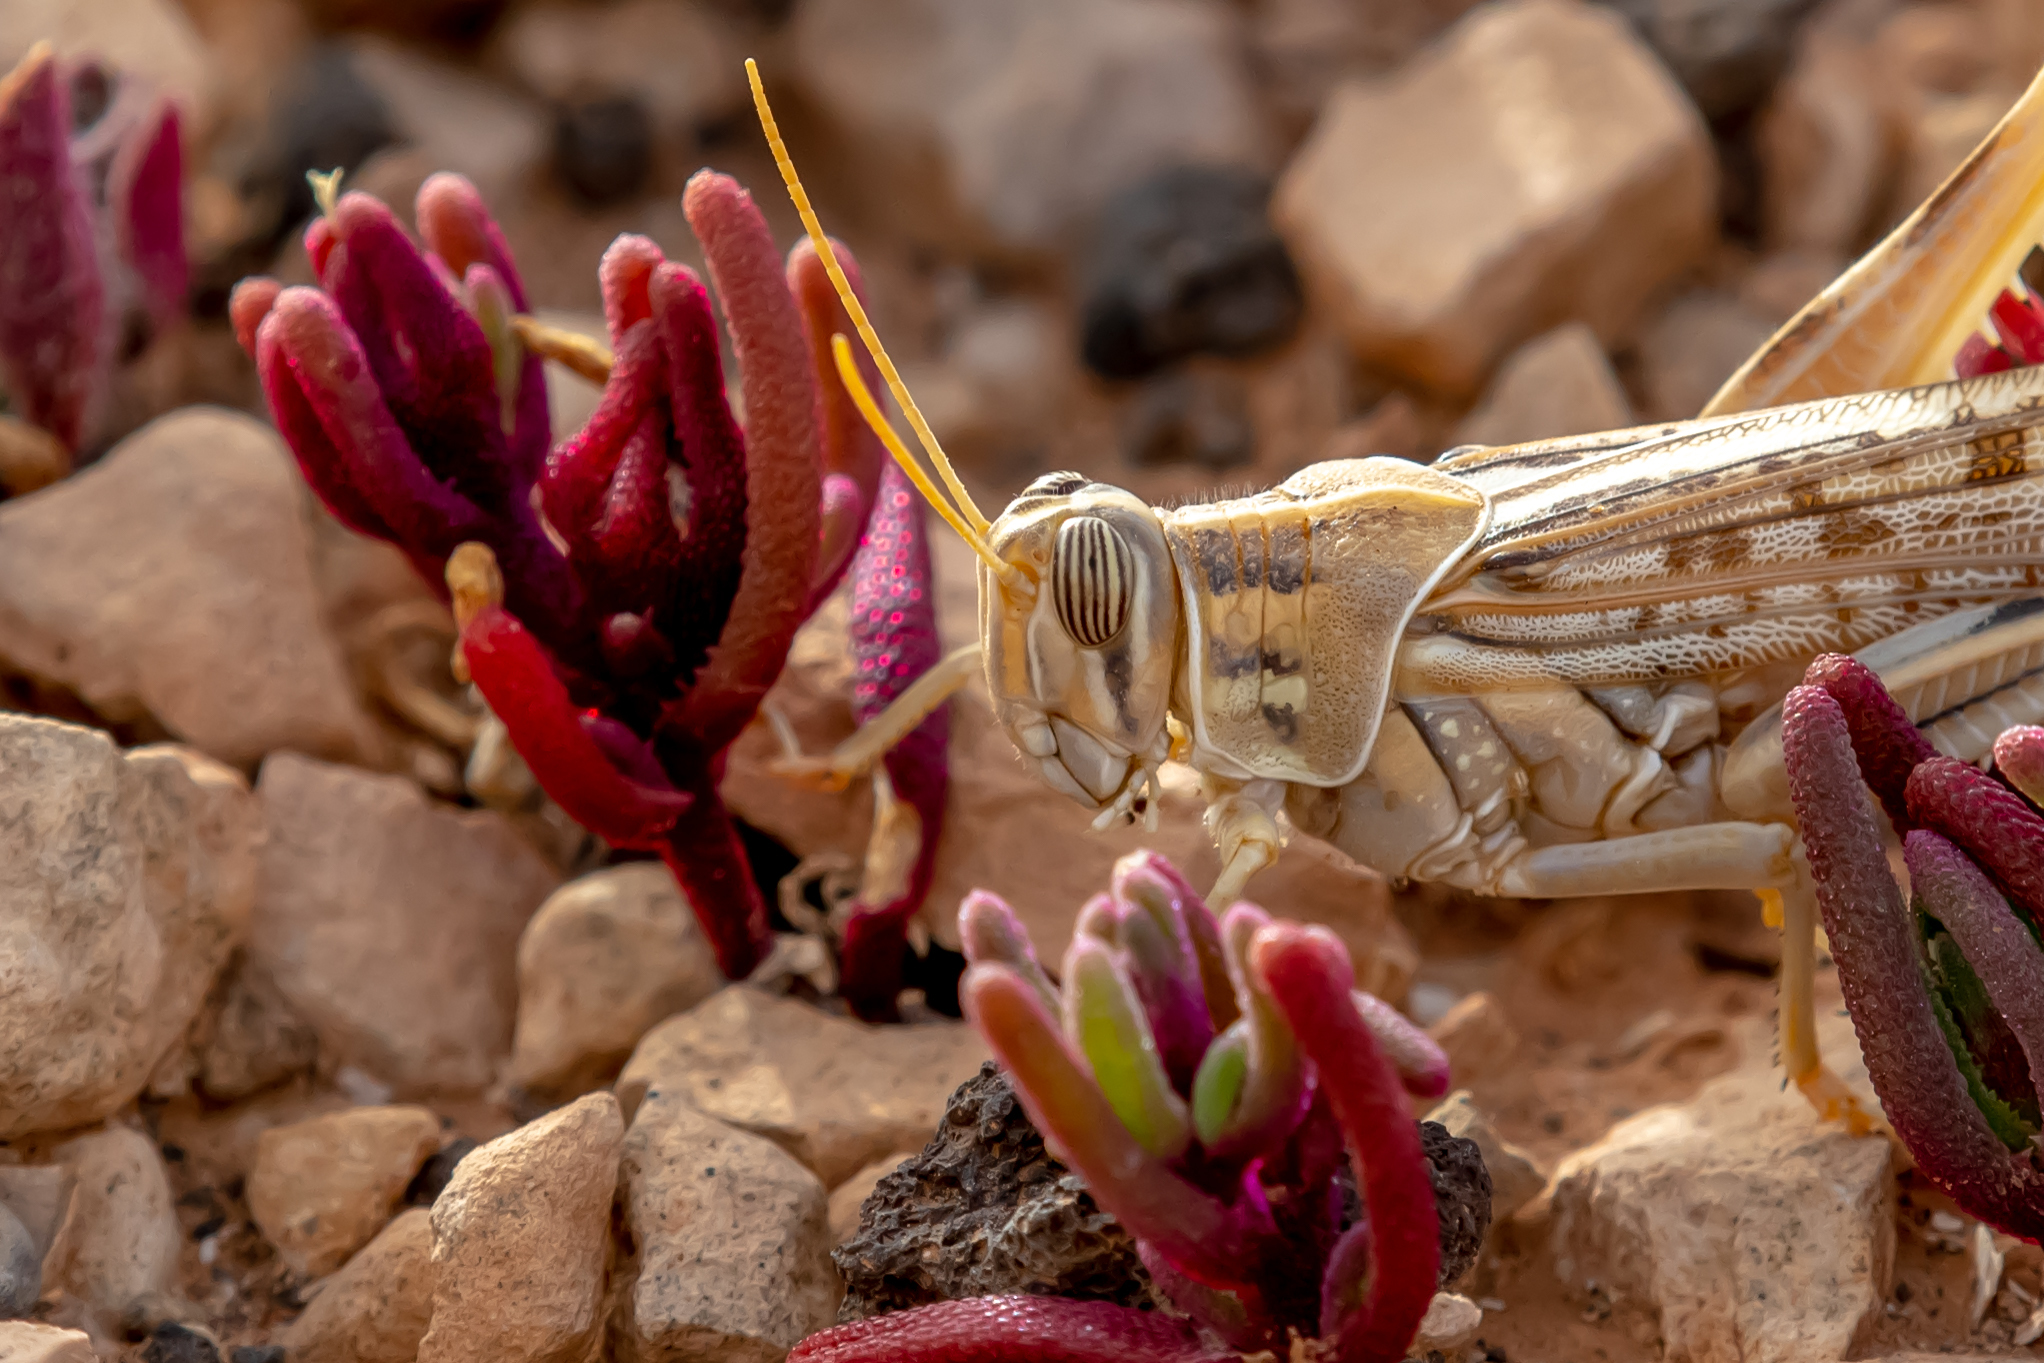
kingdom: Animalia
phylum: Arthropoda
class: Insecta
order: Orthoptera
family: Acrididae
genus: Schistocerca
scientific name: Schistocerca gregaria
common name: Desert locust
